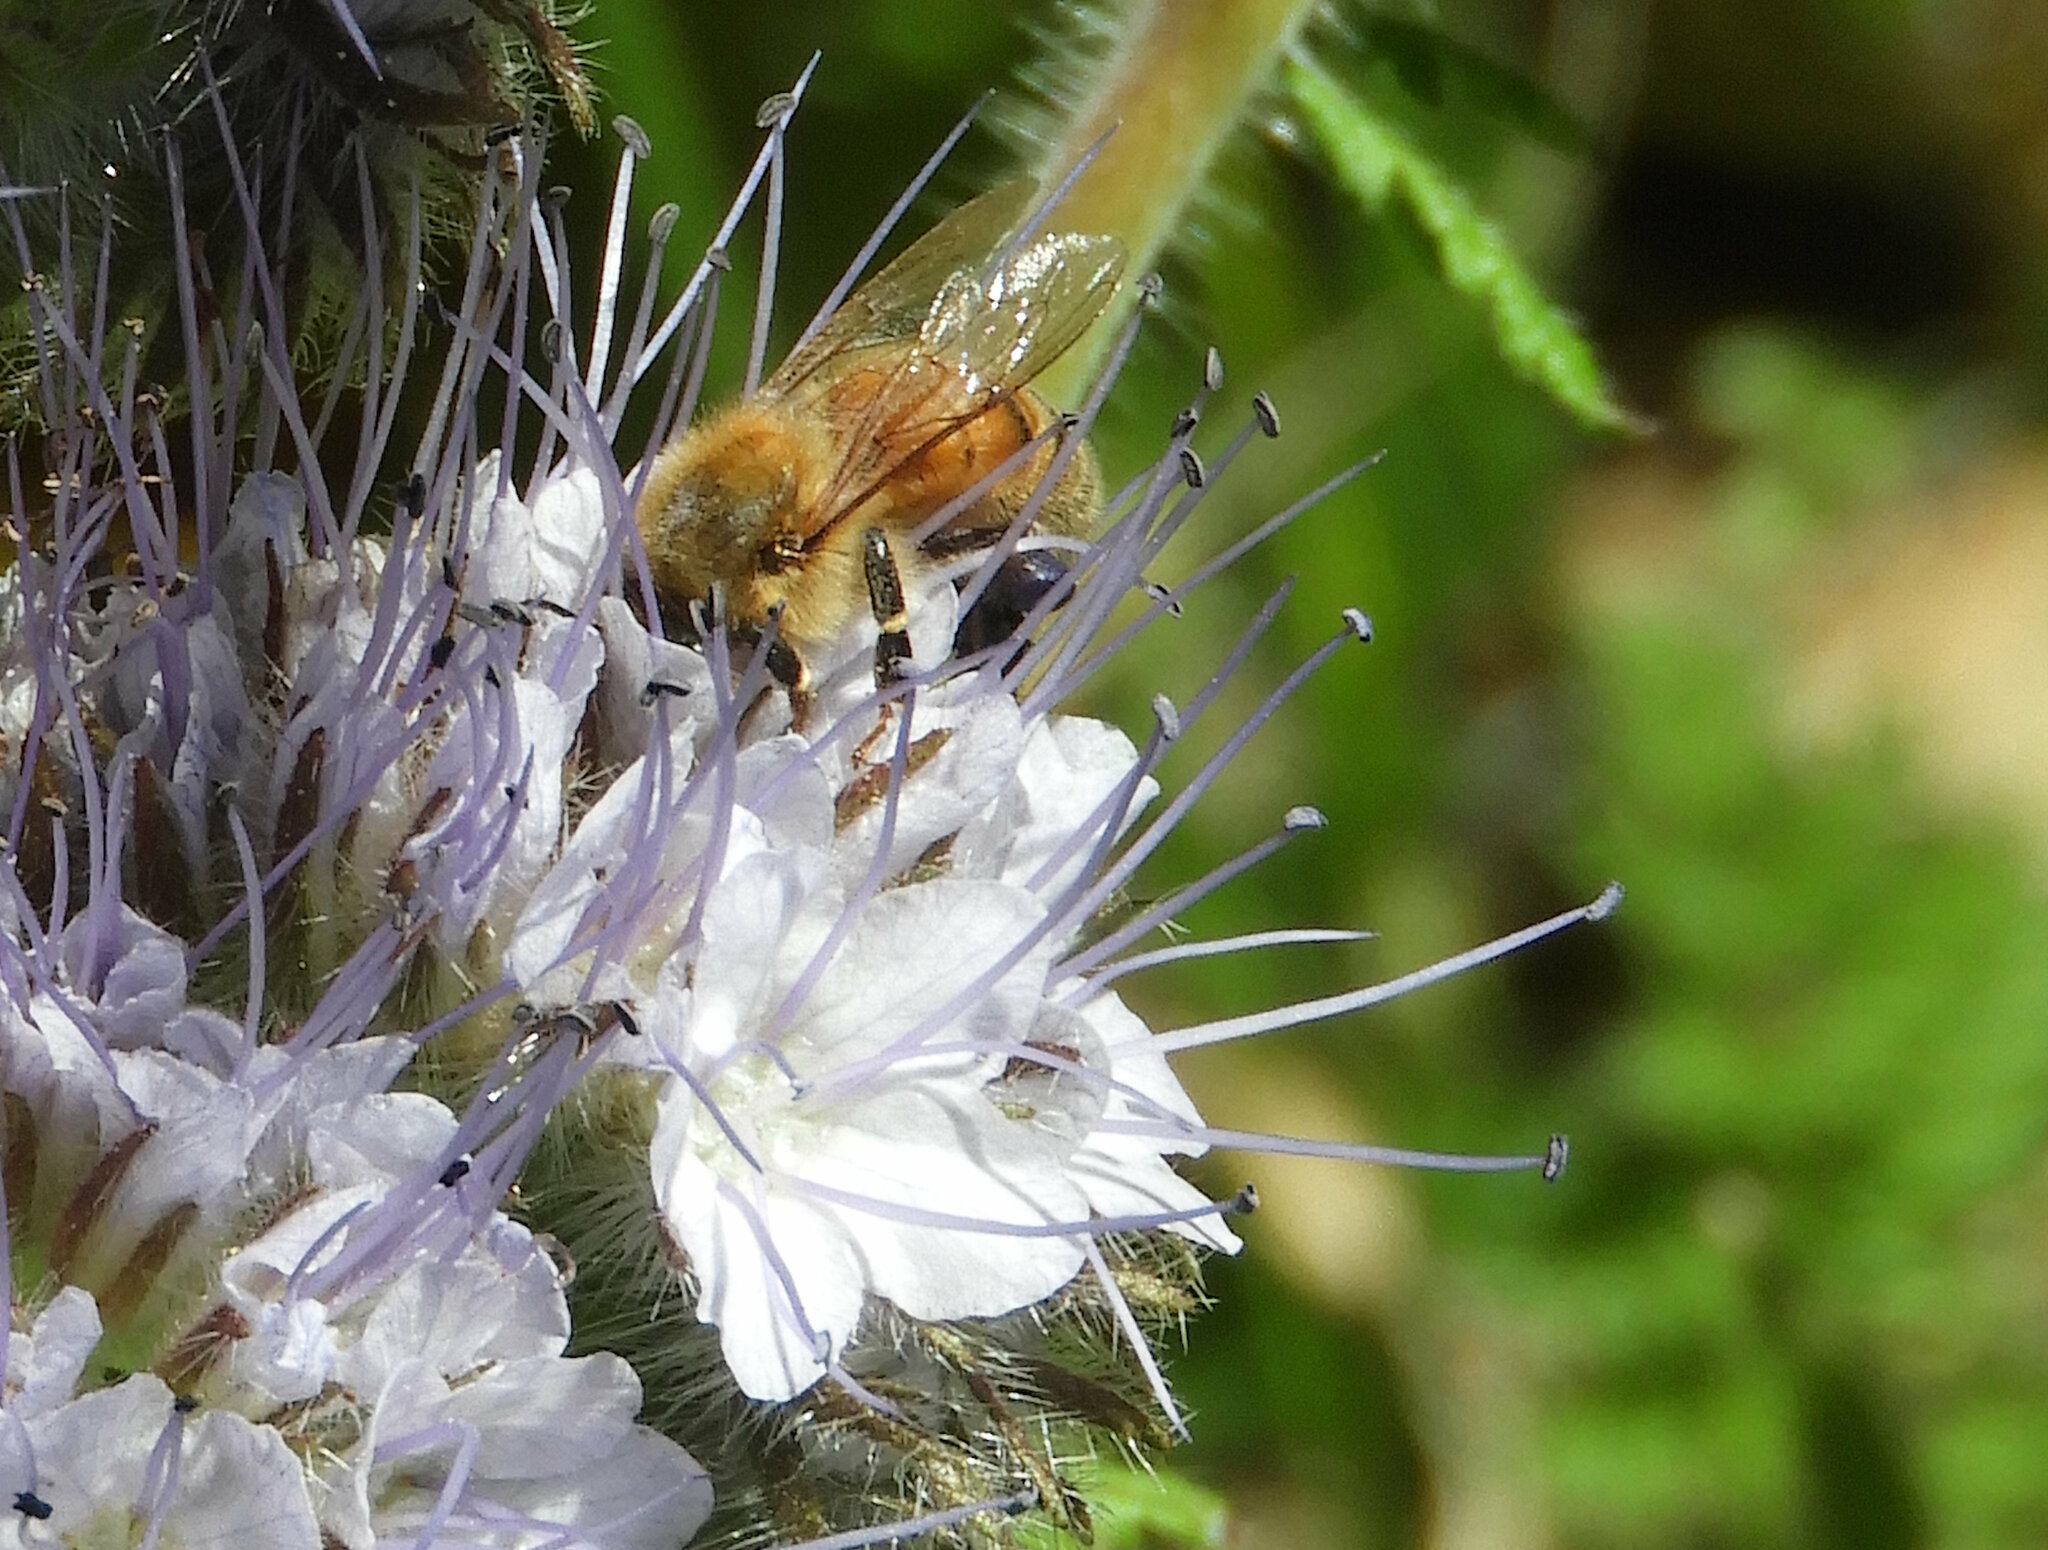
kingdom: Animalia
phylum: Arthropoda
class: Insecta
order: Hymenoptera
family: Apidae
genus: Apis
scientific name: Apis mellifera
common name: Honey bee
